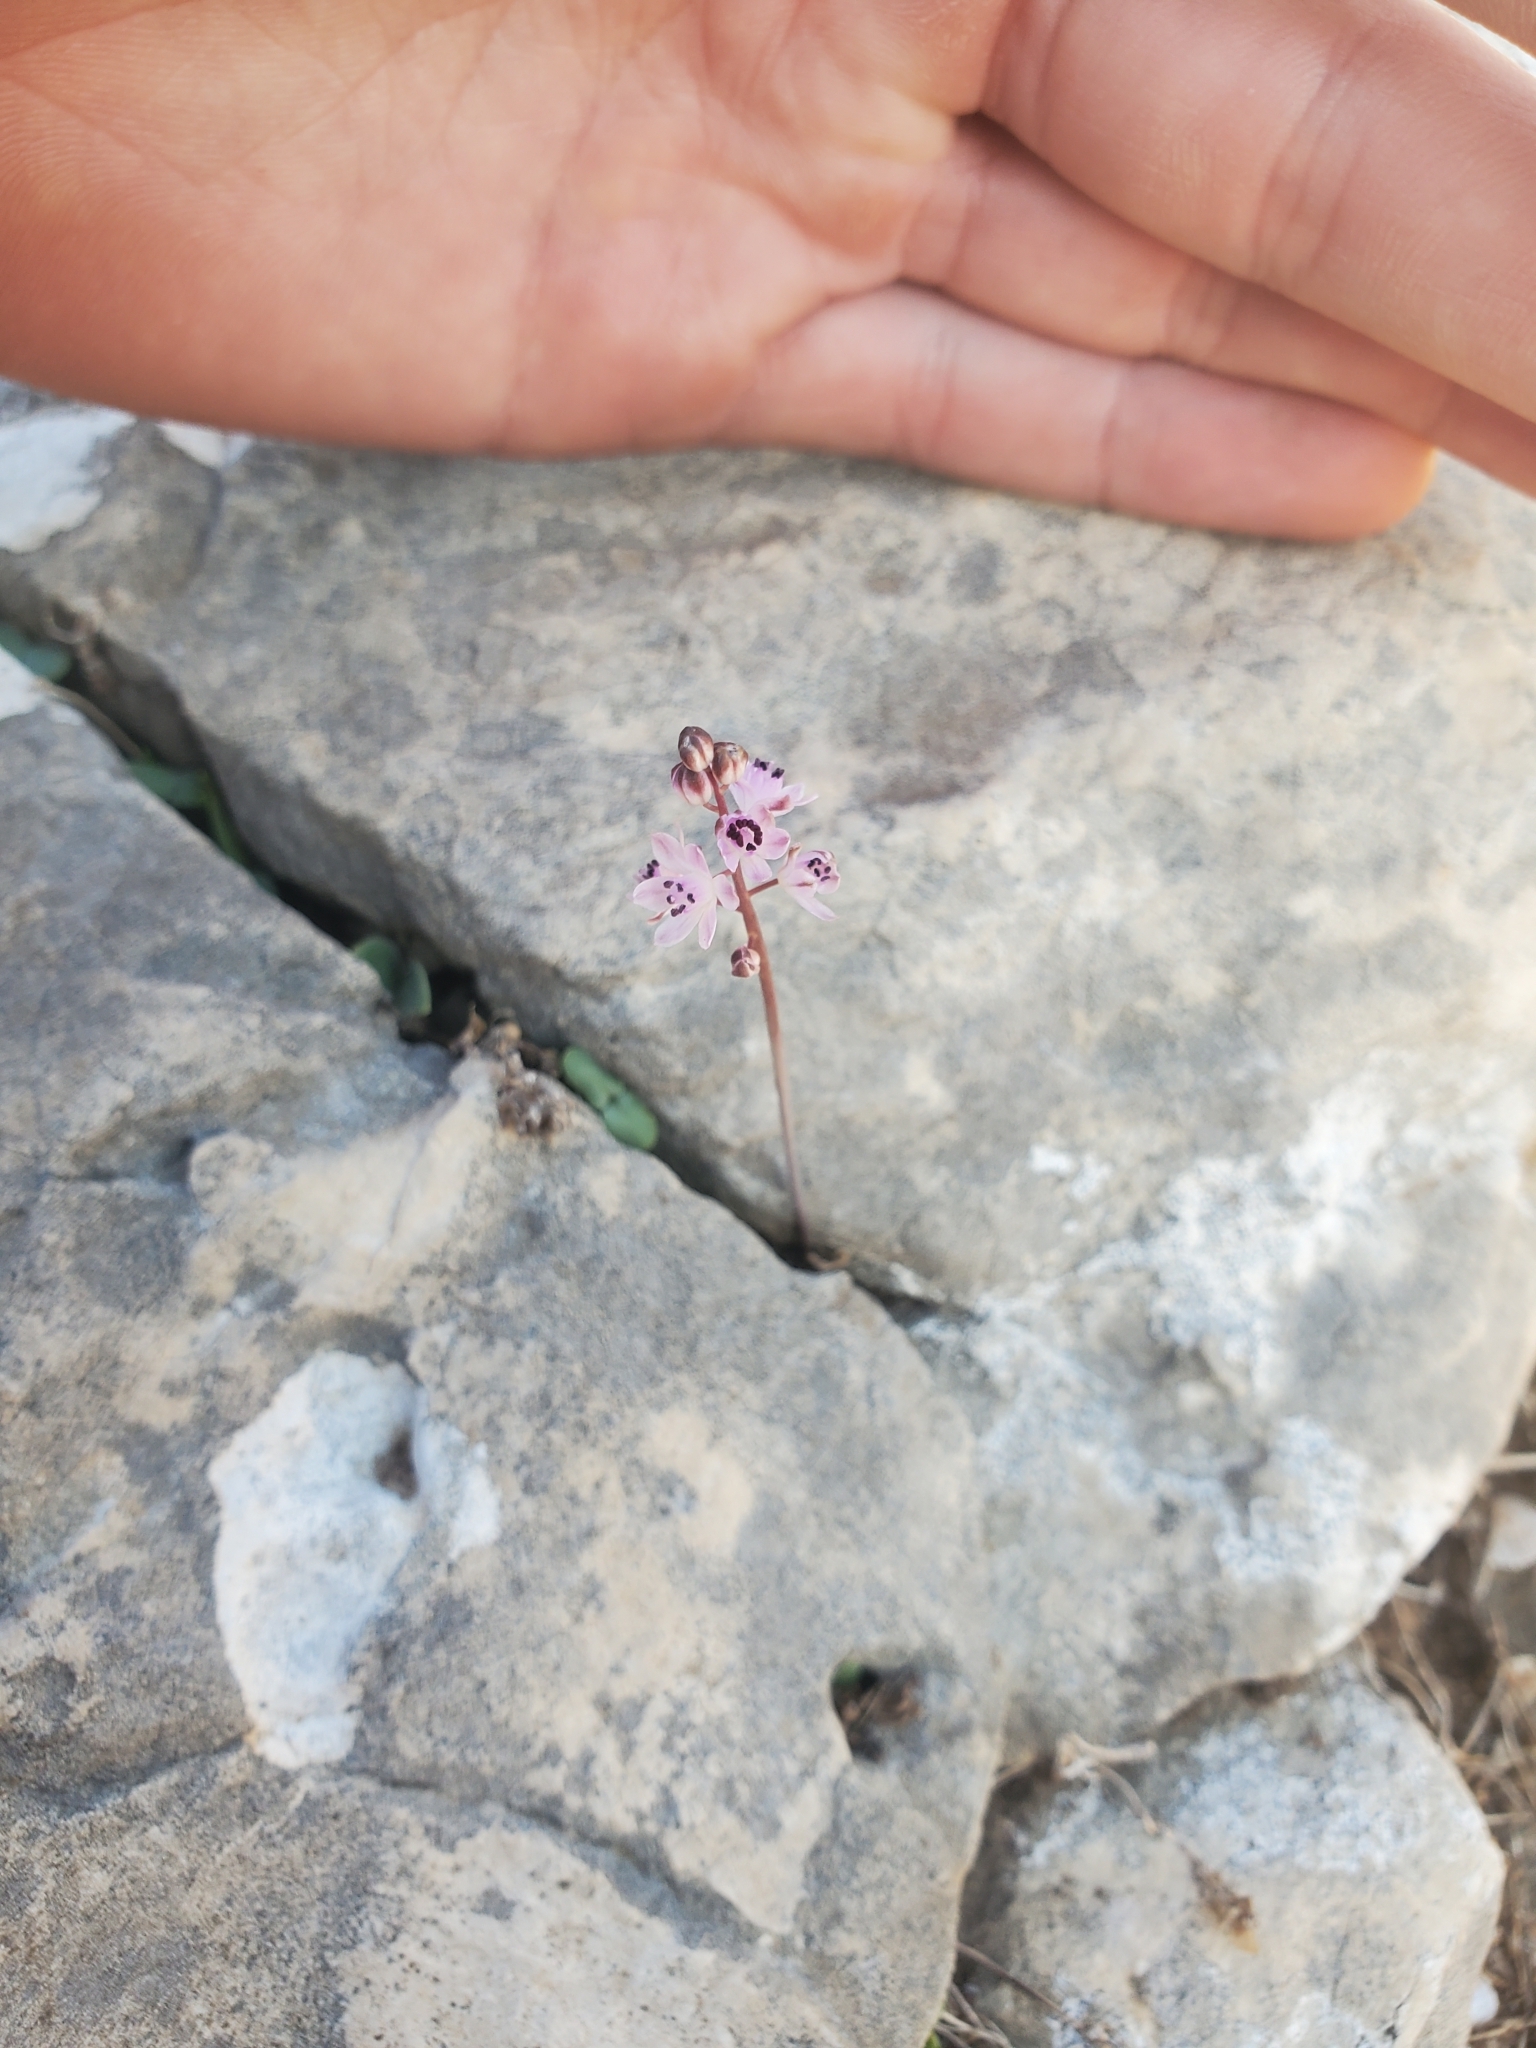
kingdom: Plantae
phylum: Tracheophyta
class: Liliopsida
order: Asparagales
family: Asparagaceae
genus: Prospero
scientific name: Prospero autumnale
